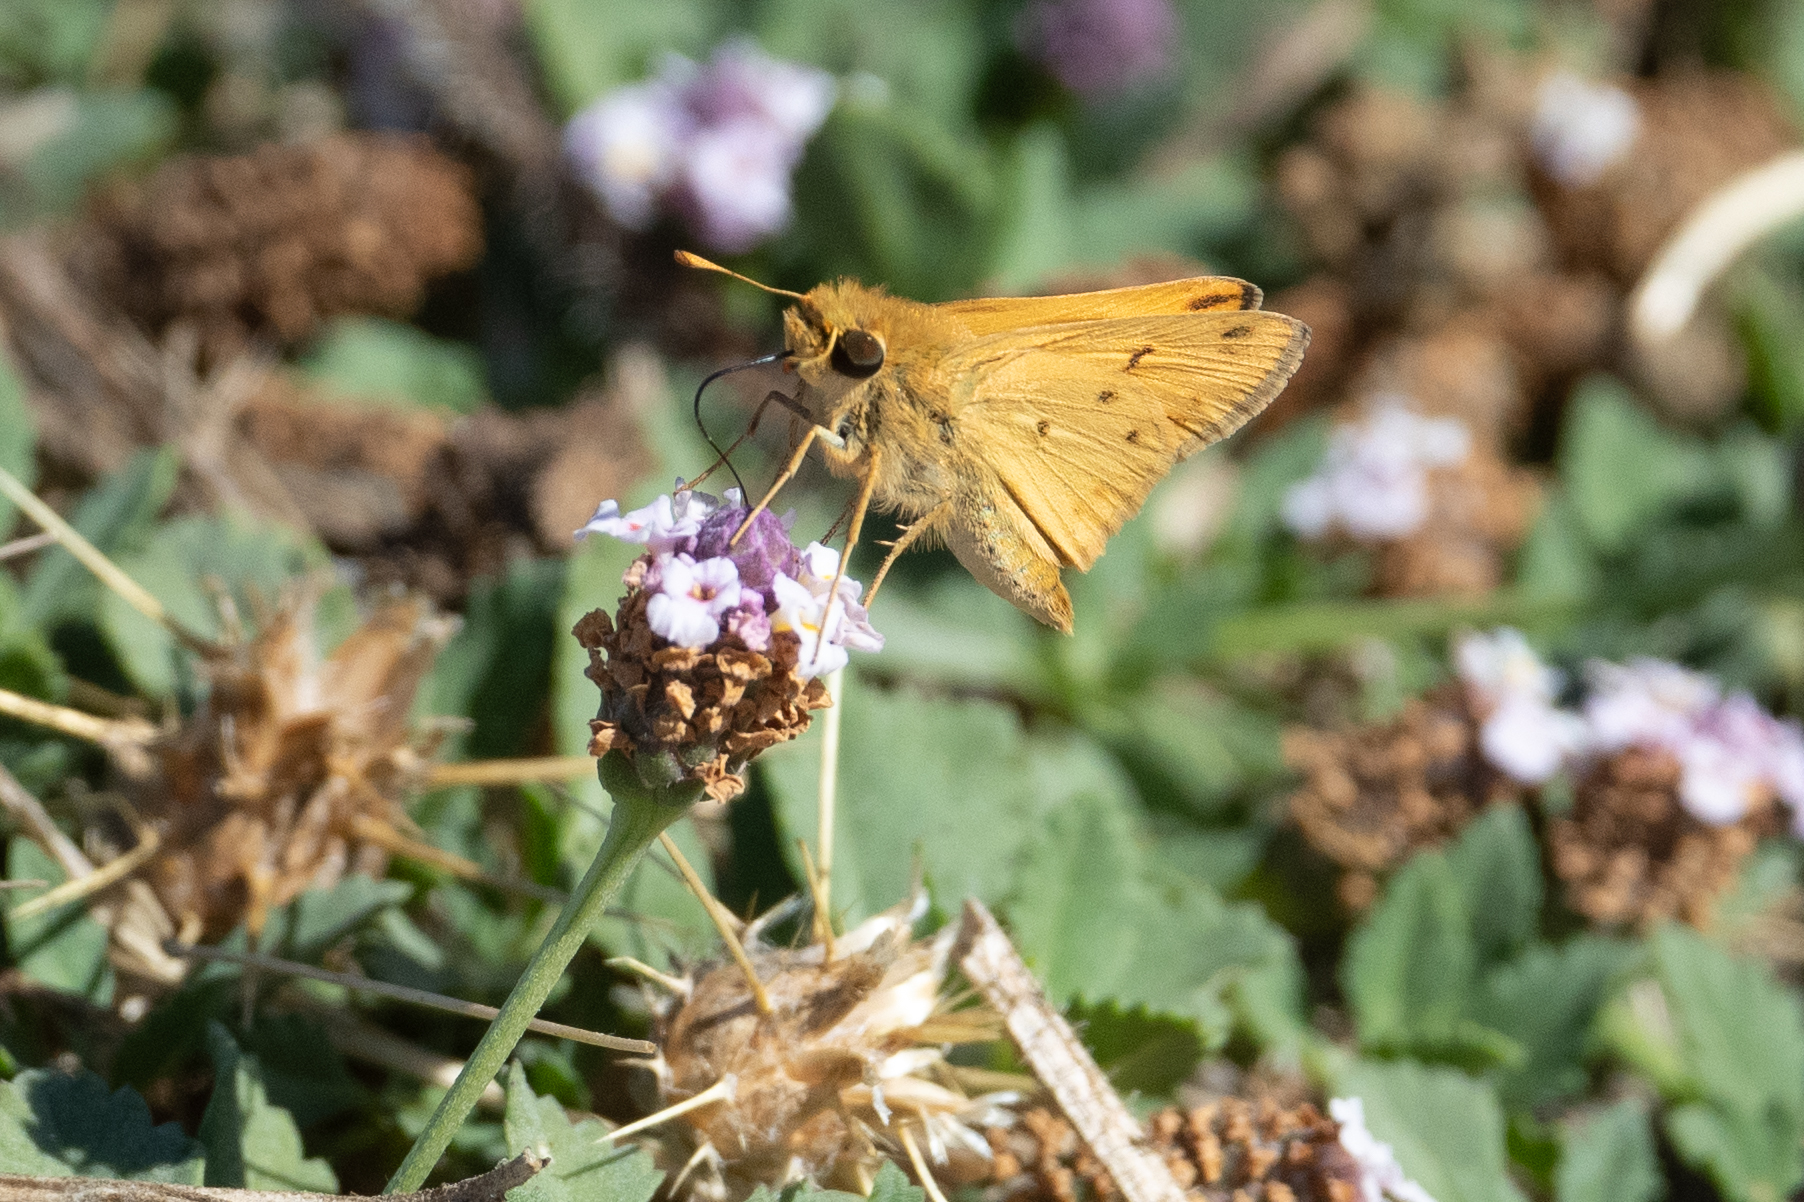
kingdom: Animalia
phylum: Arthropoda
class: Insecta
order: Lepidoptera
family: Hesperiidae
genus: Hylephila
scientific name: Hylephila phyleus
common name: Fiery skipper
